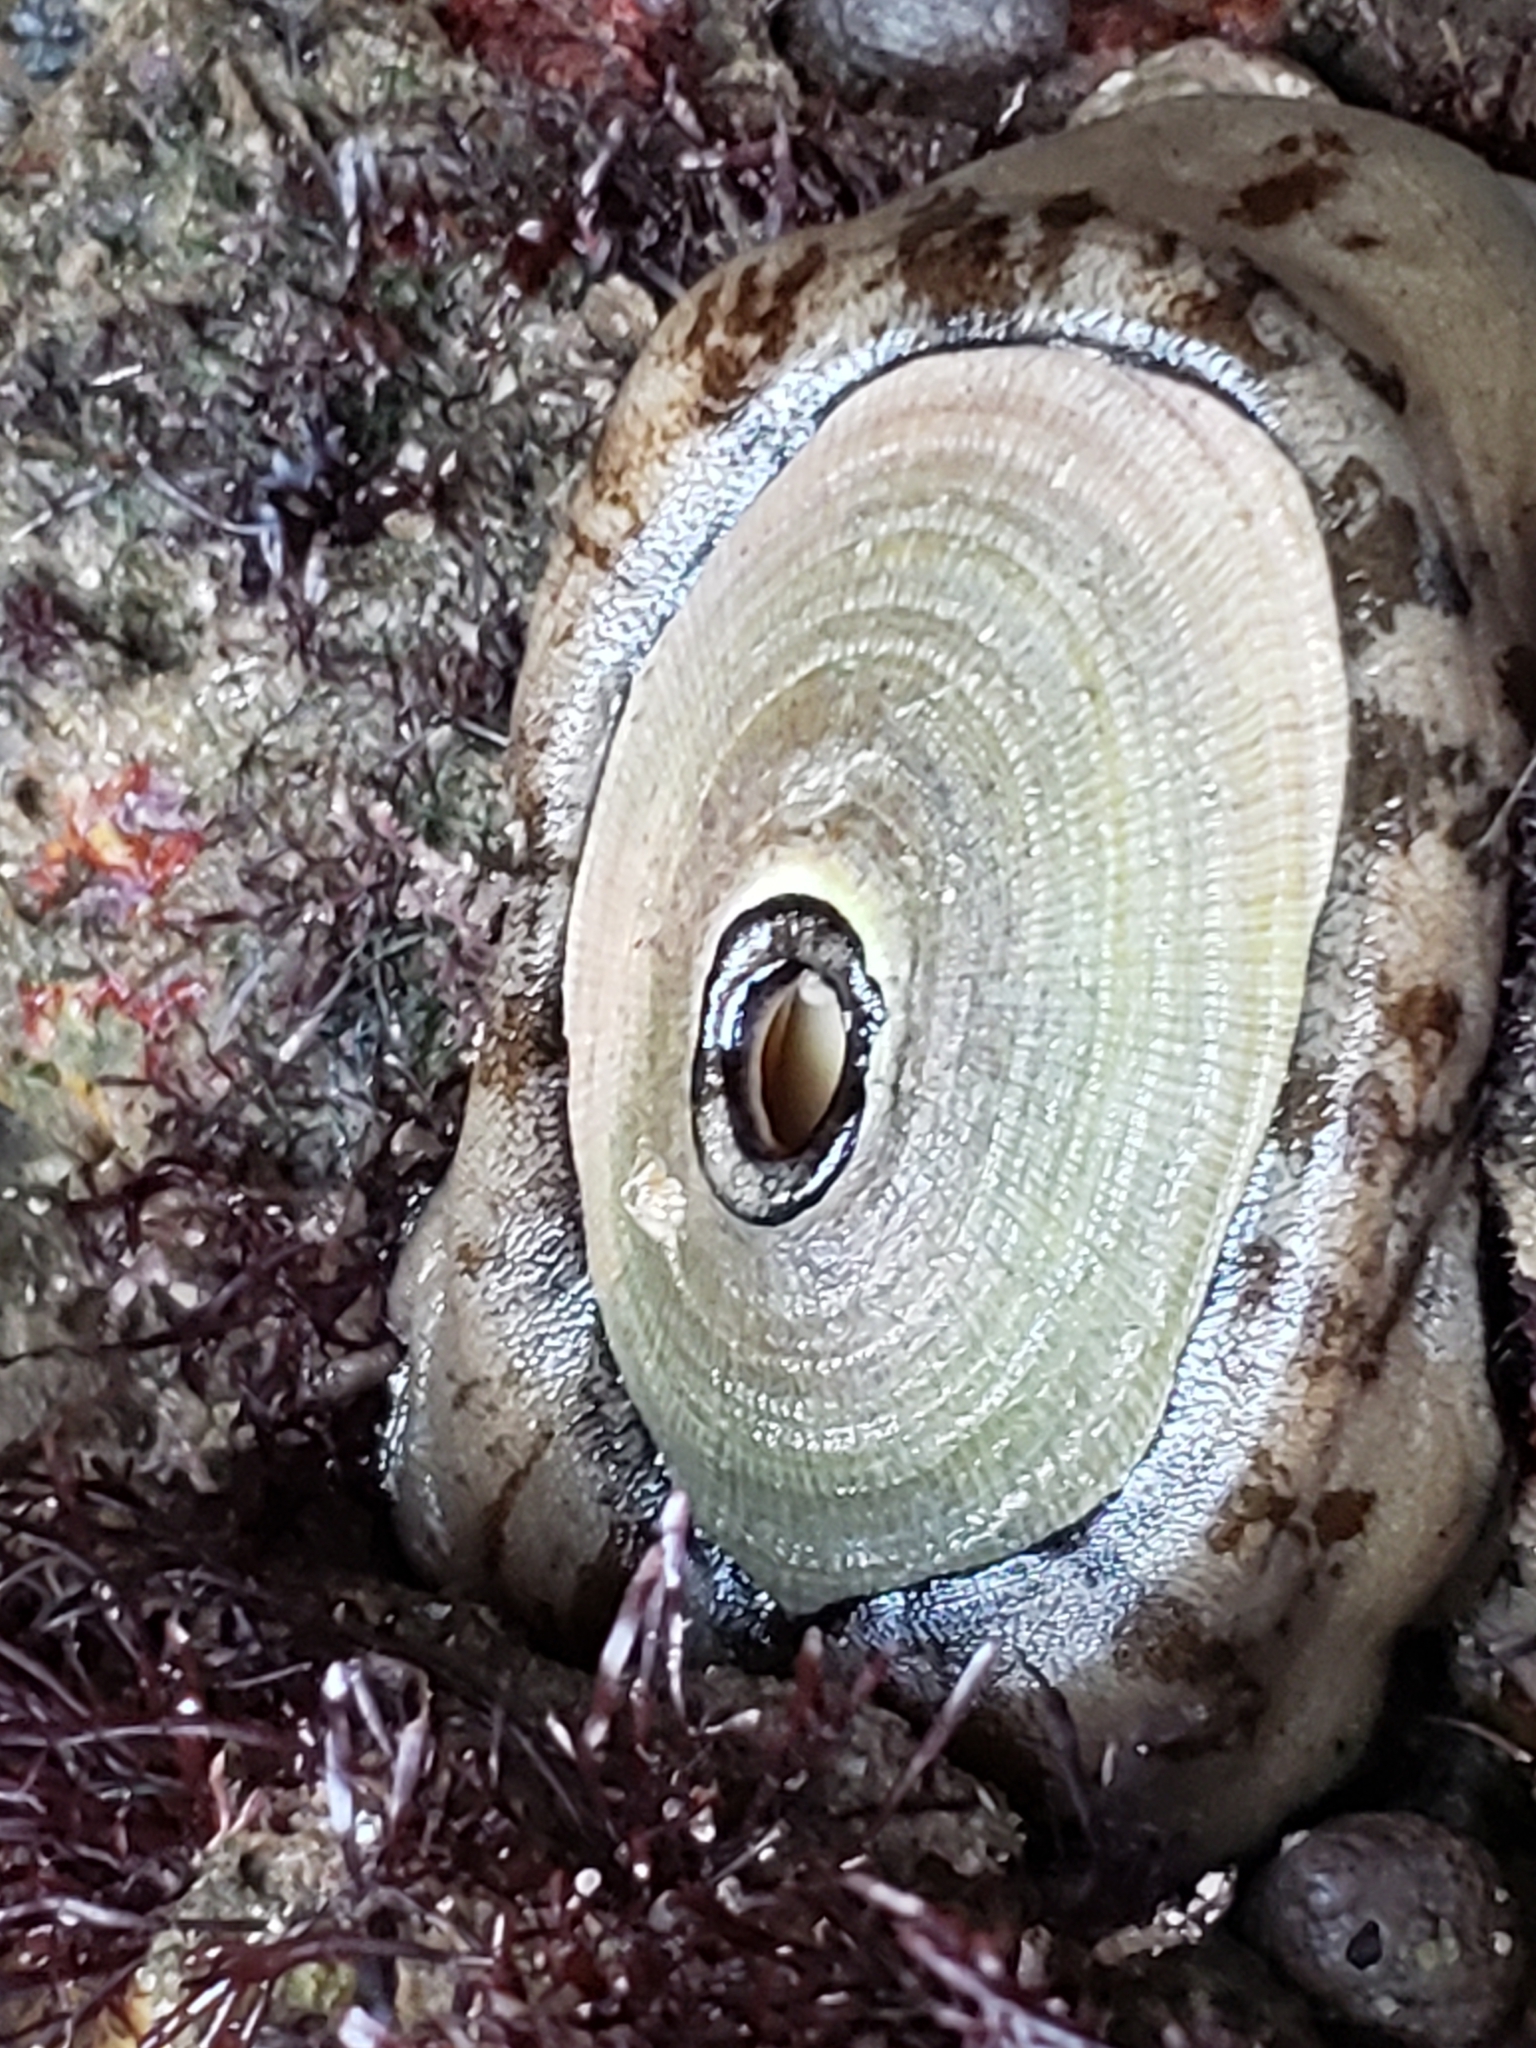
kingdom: Animalia
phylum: Mollusca
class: Gastropoda
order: Lepetellida
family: Fissurellidae
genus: Megathura
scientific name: Megathura crenulata
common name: Giant keyhole limpet
